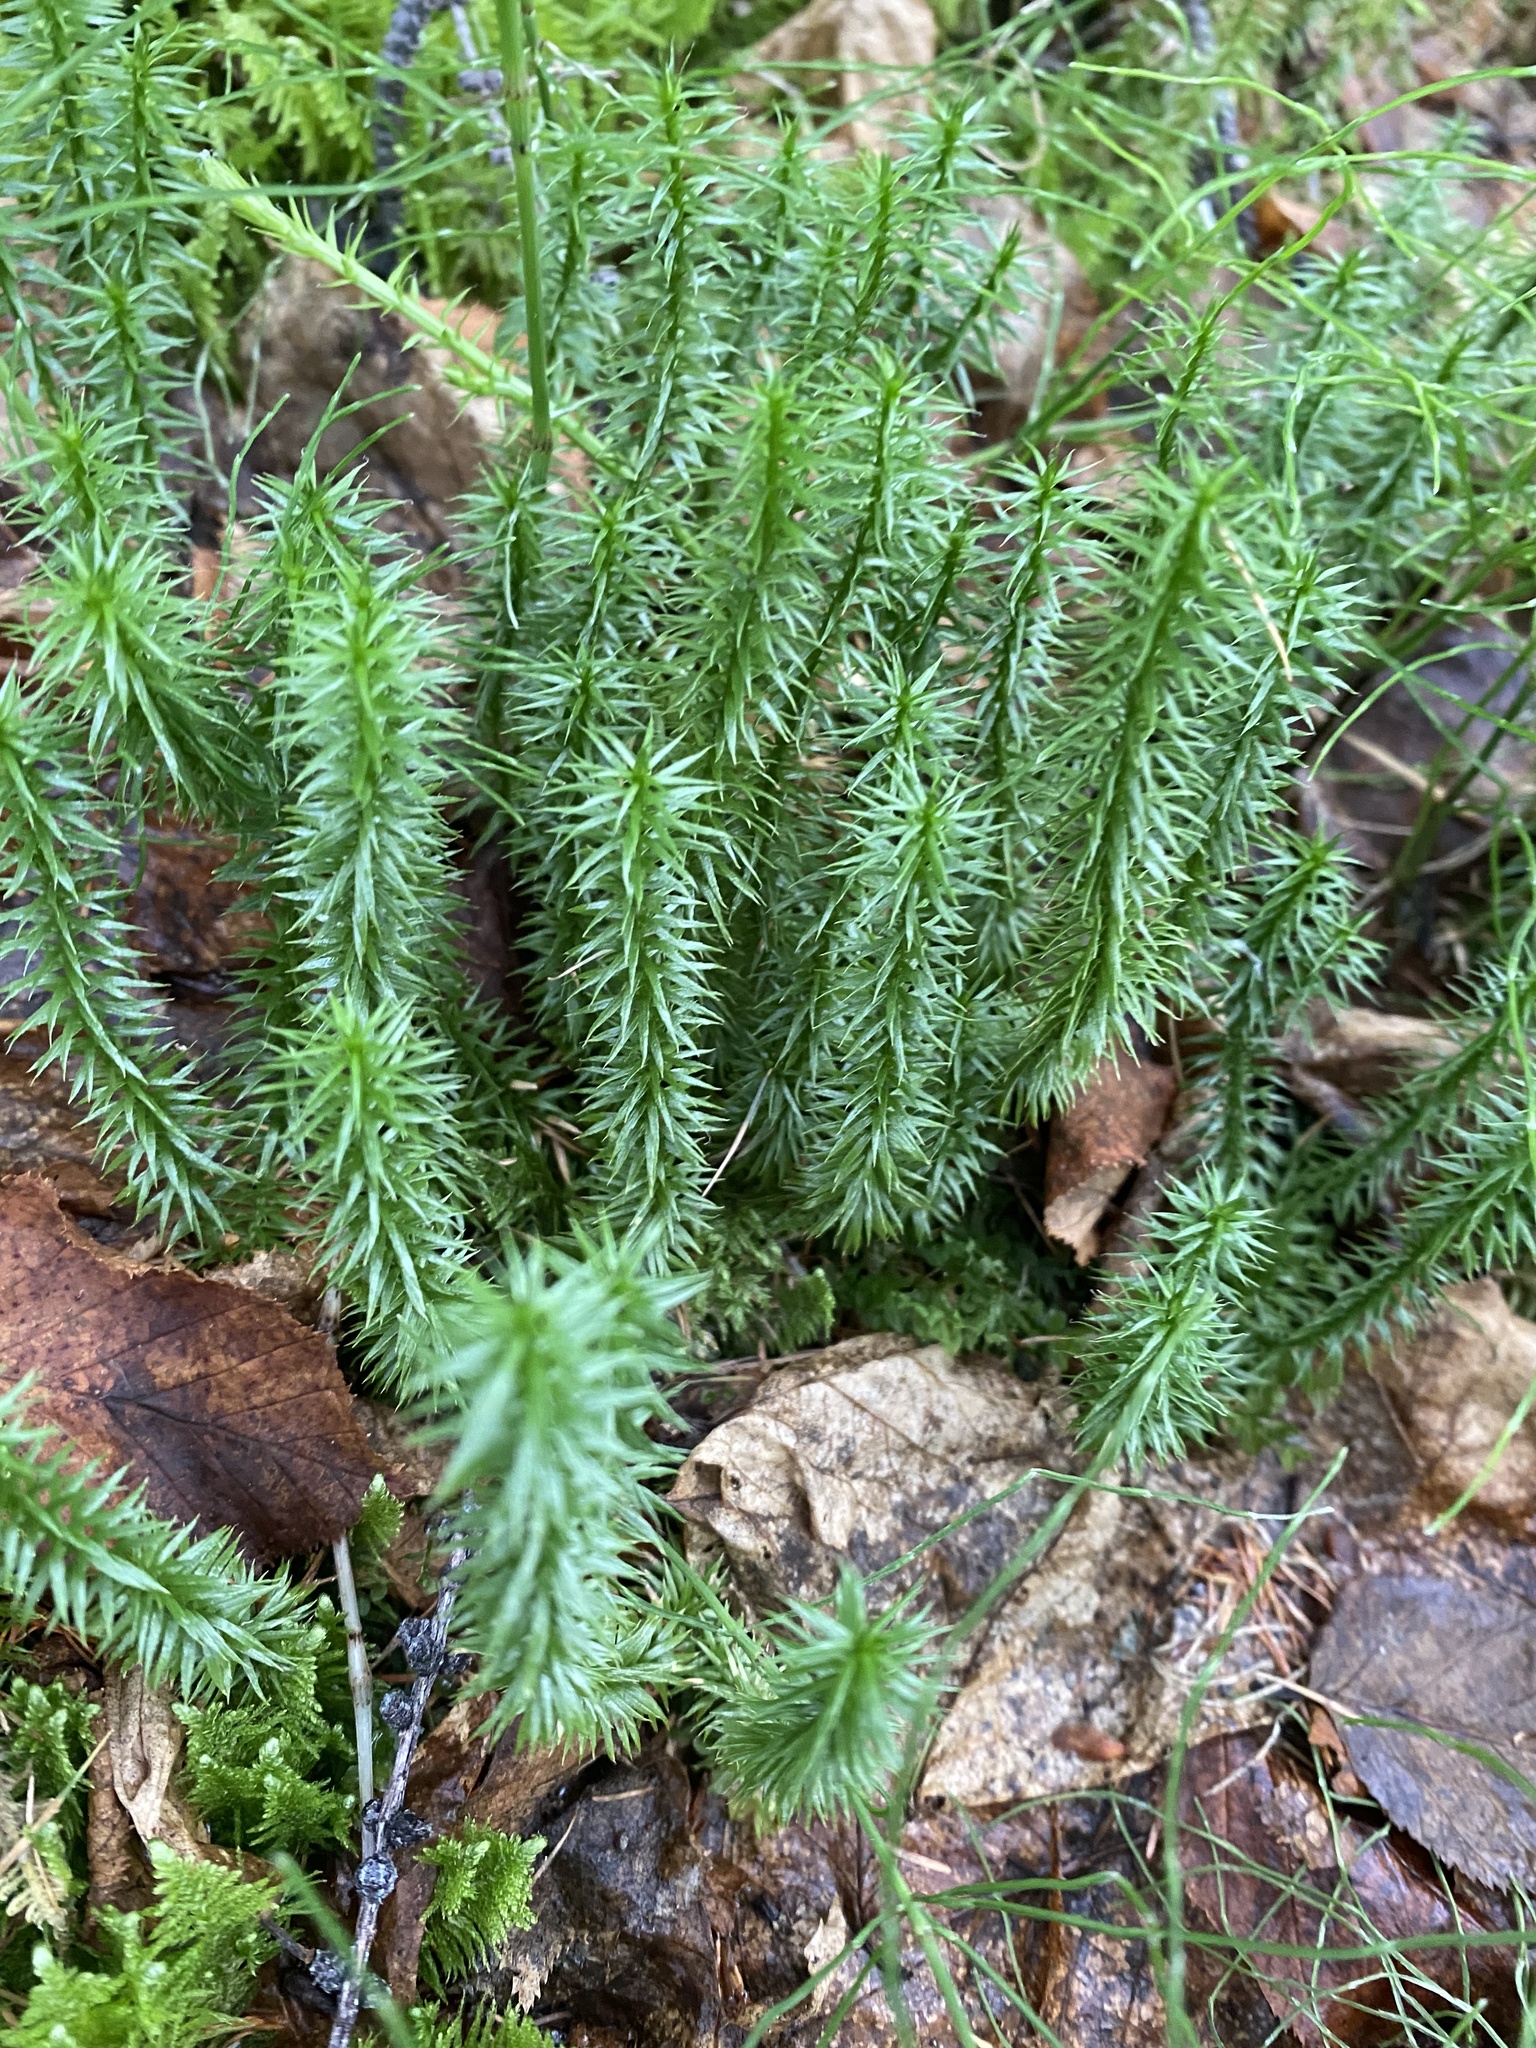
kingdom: Plantae
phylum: Tracheophyta
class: Lycopodiopsida
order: Lycopodiales
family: Lycopodiaceae
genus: Spinulum
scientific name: Spinulum annotinum
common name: Interrupted club-moss
